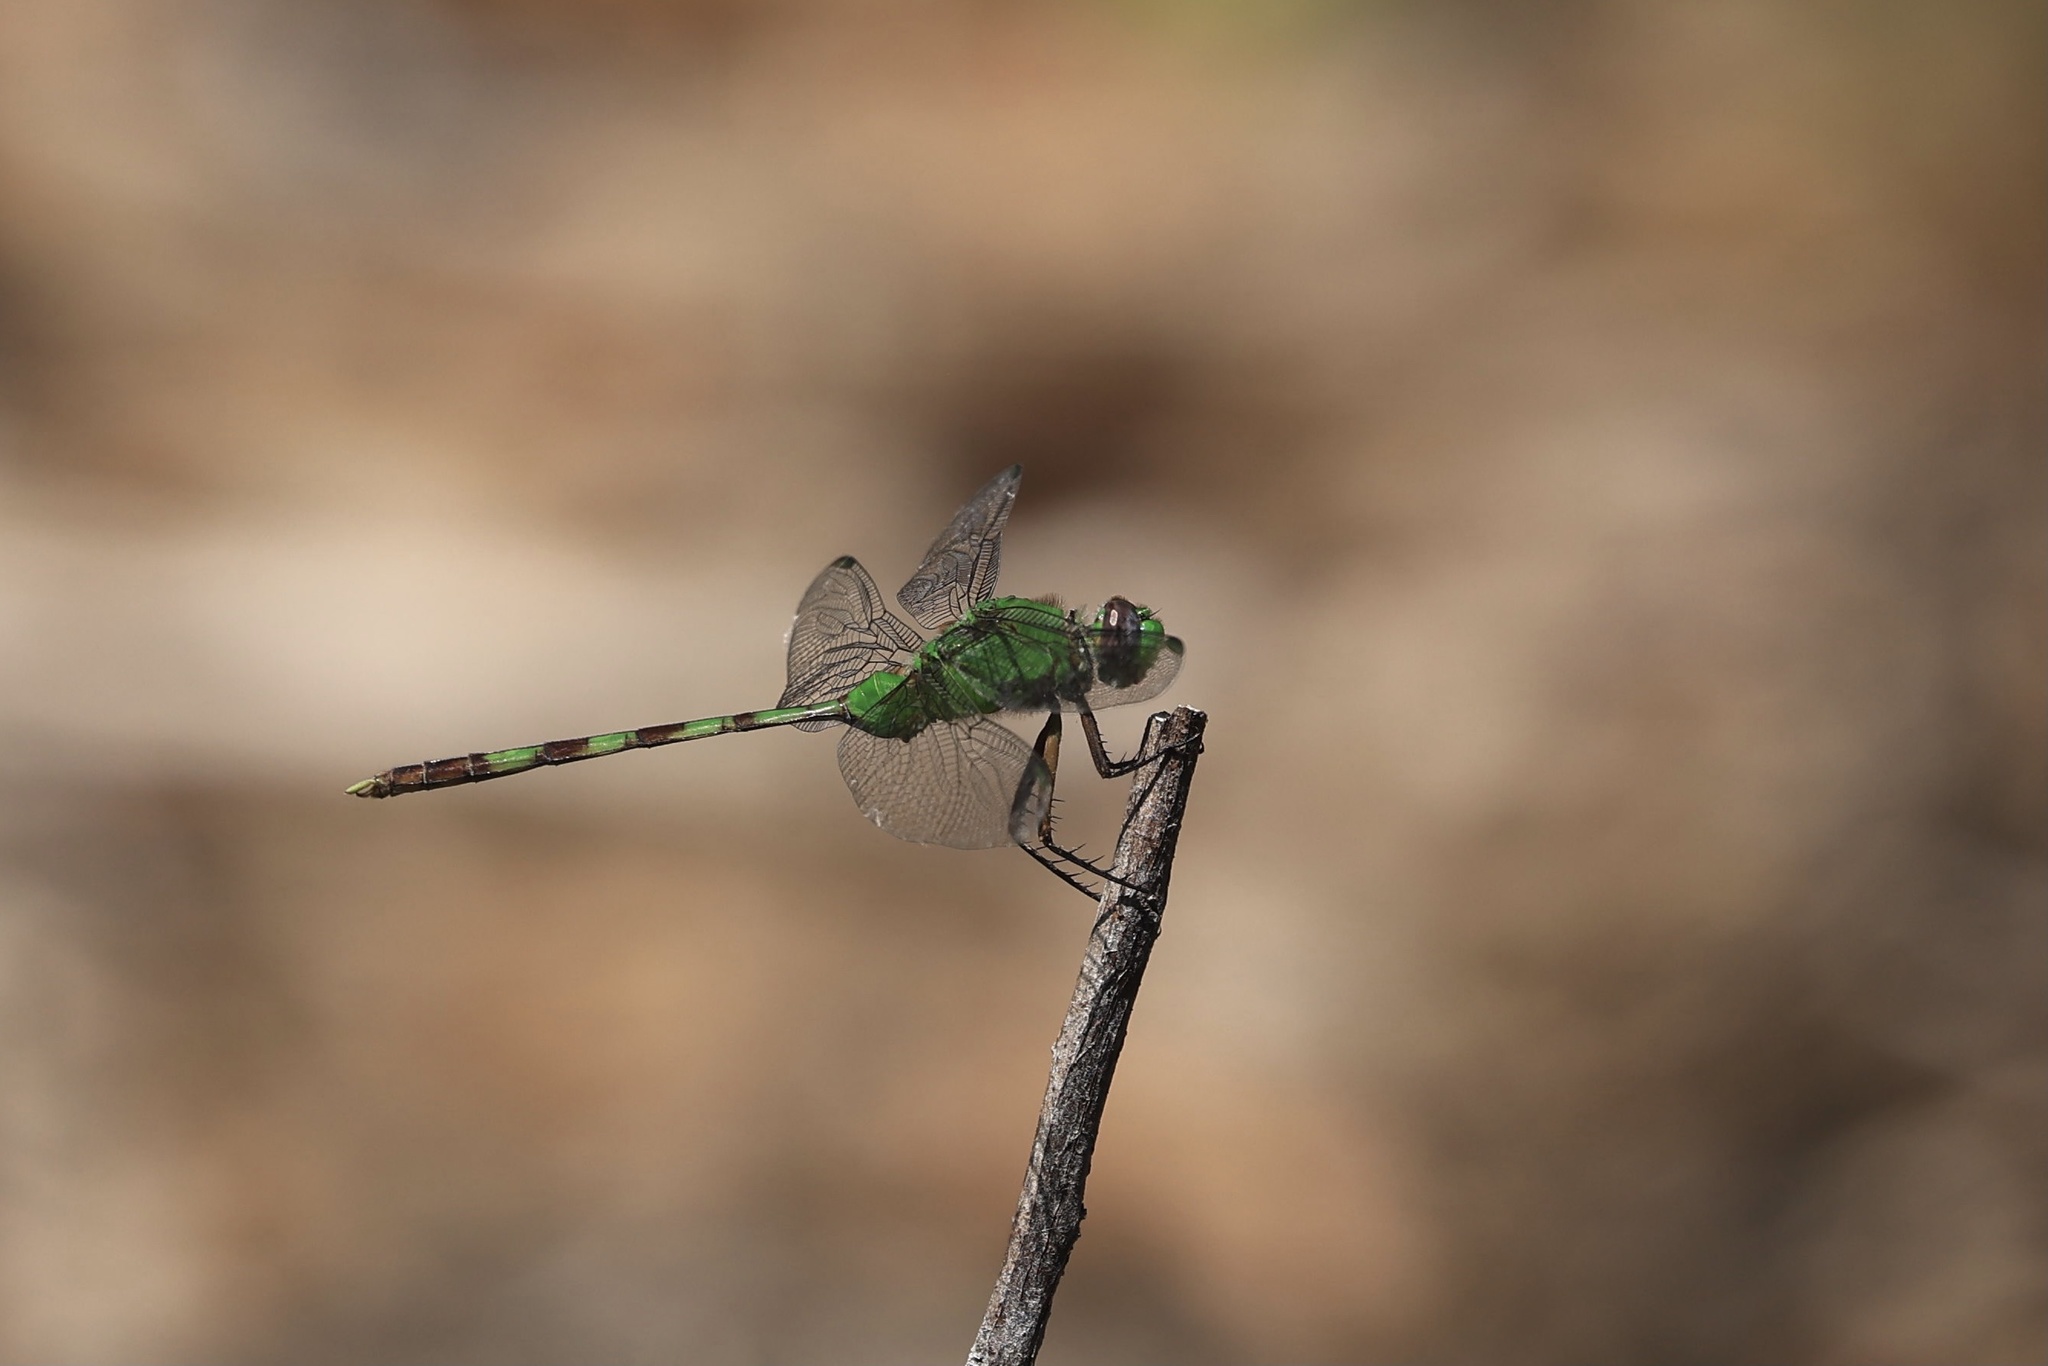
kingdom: Animalia
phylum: Arthropoda
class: Insecta
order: Odonata
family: Libellulidae
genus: Erythemis
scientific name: Erythemis vesiculosa
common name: Great pondhawk
